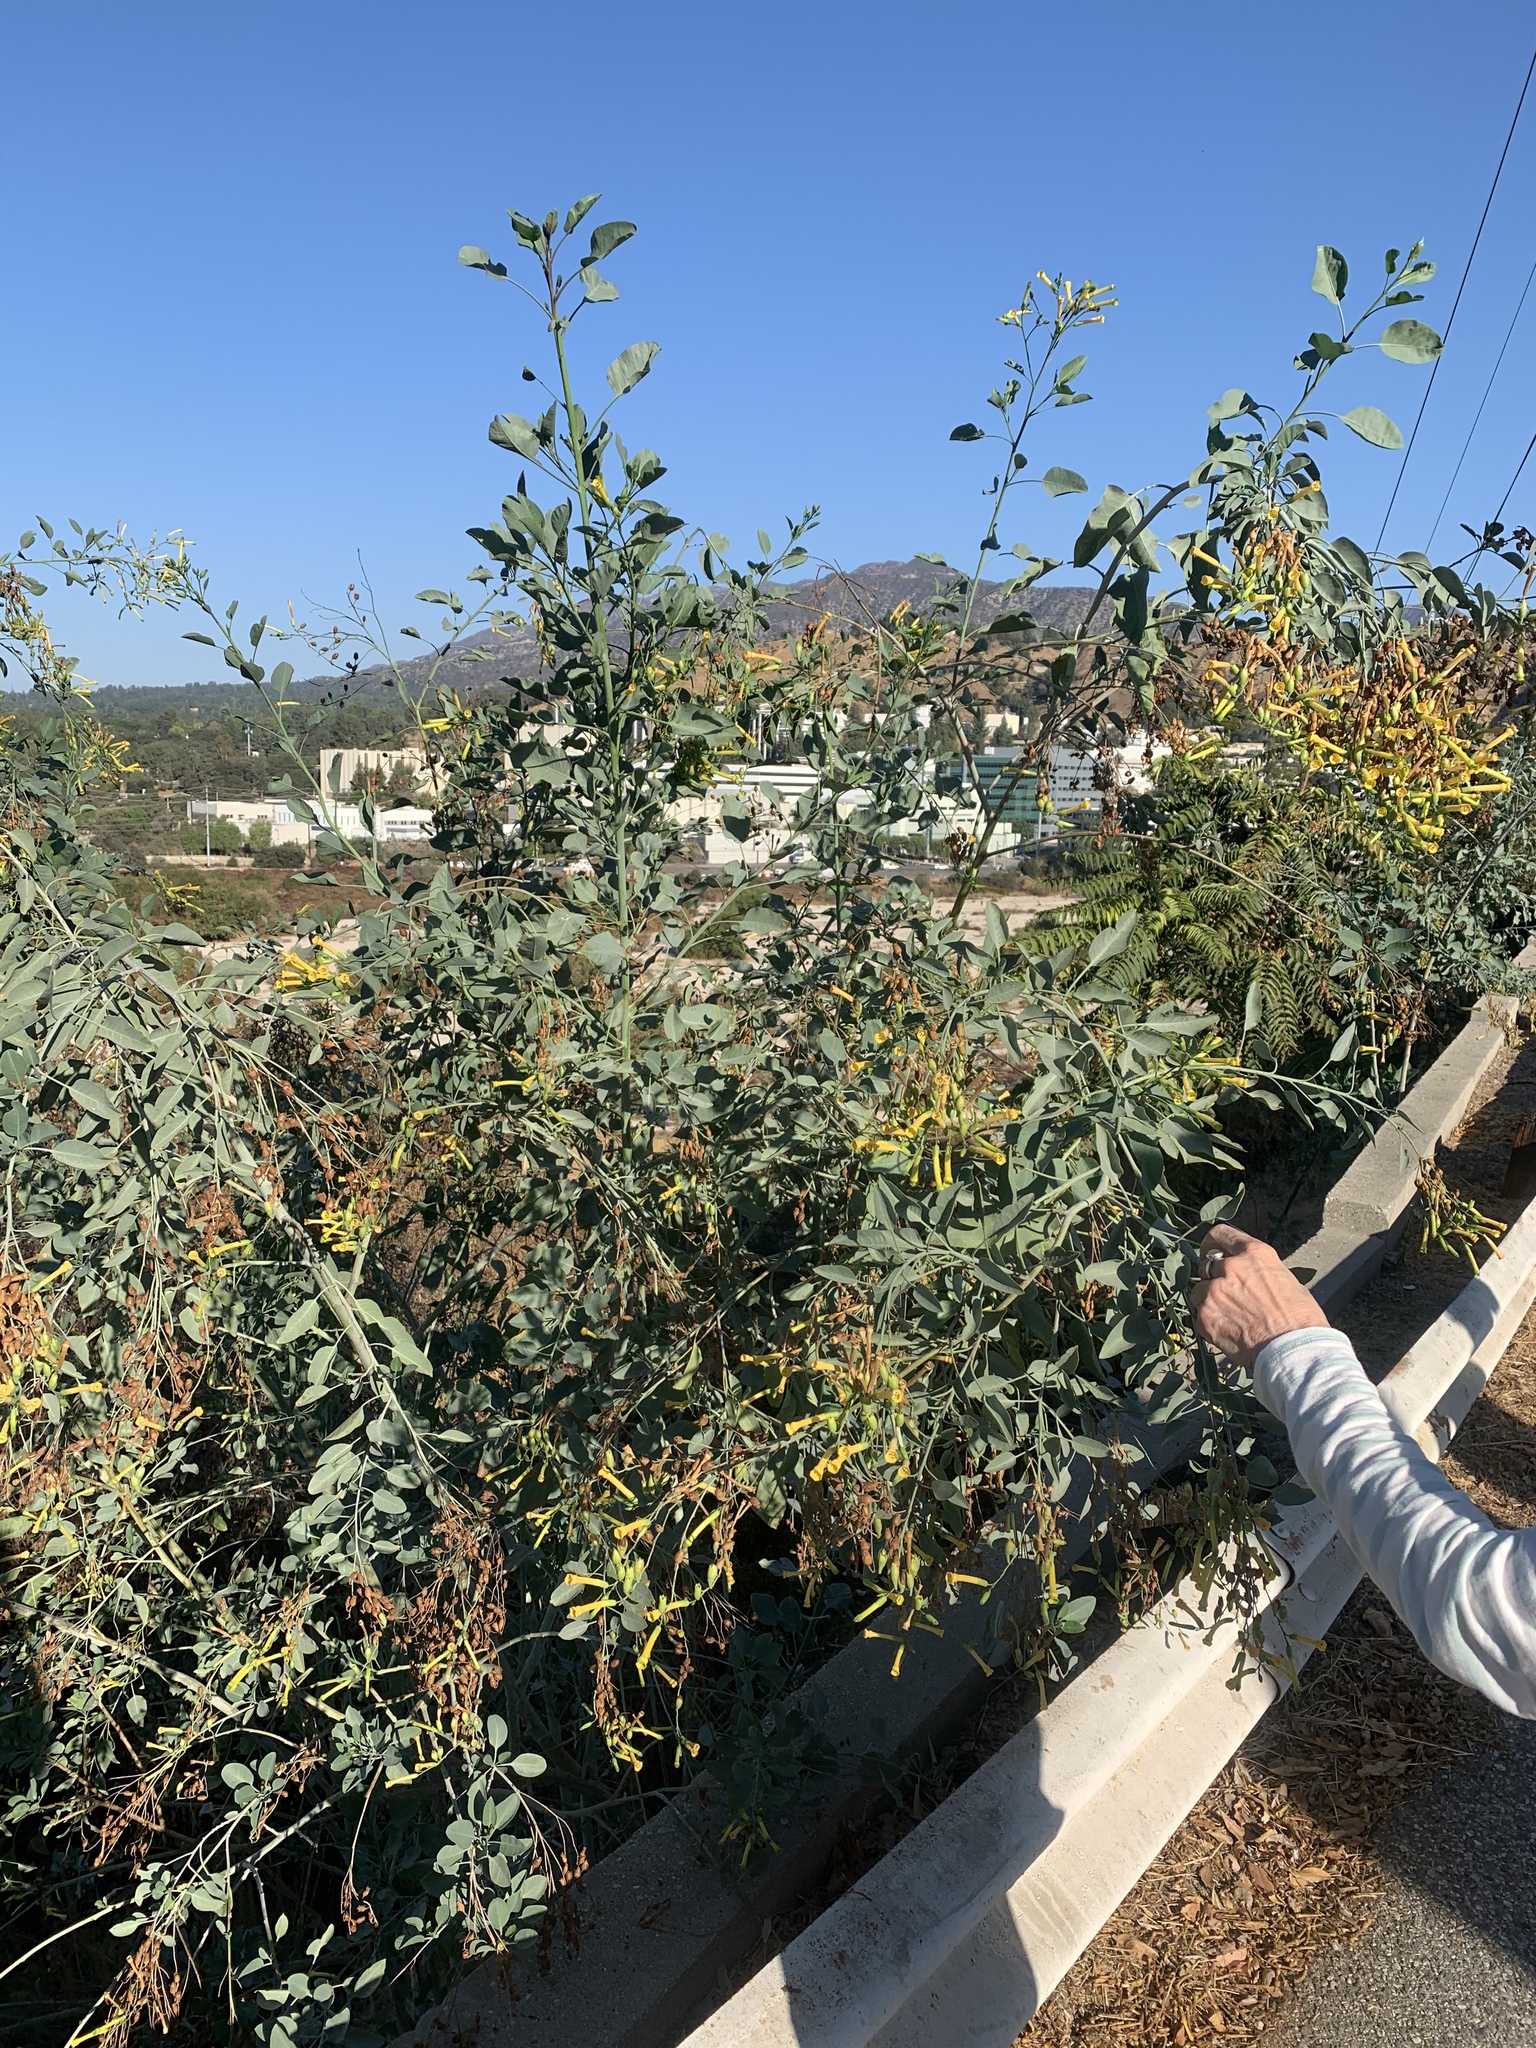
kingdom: Plantae
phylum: Tracheophyta
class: Magnoliopsida
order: Solanales
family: Solanaceae
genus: Nicotiana
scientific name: Nicotiana glauca
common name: Tree tobacco
